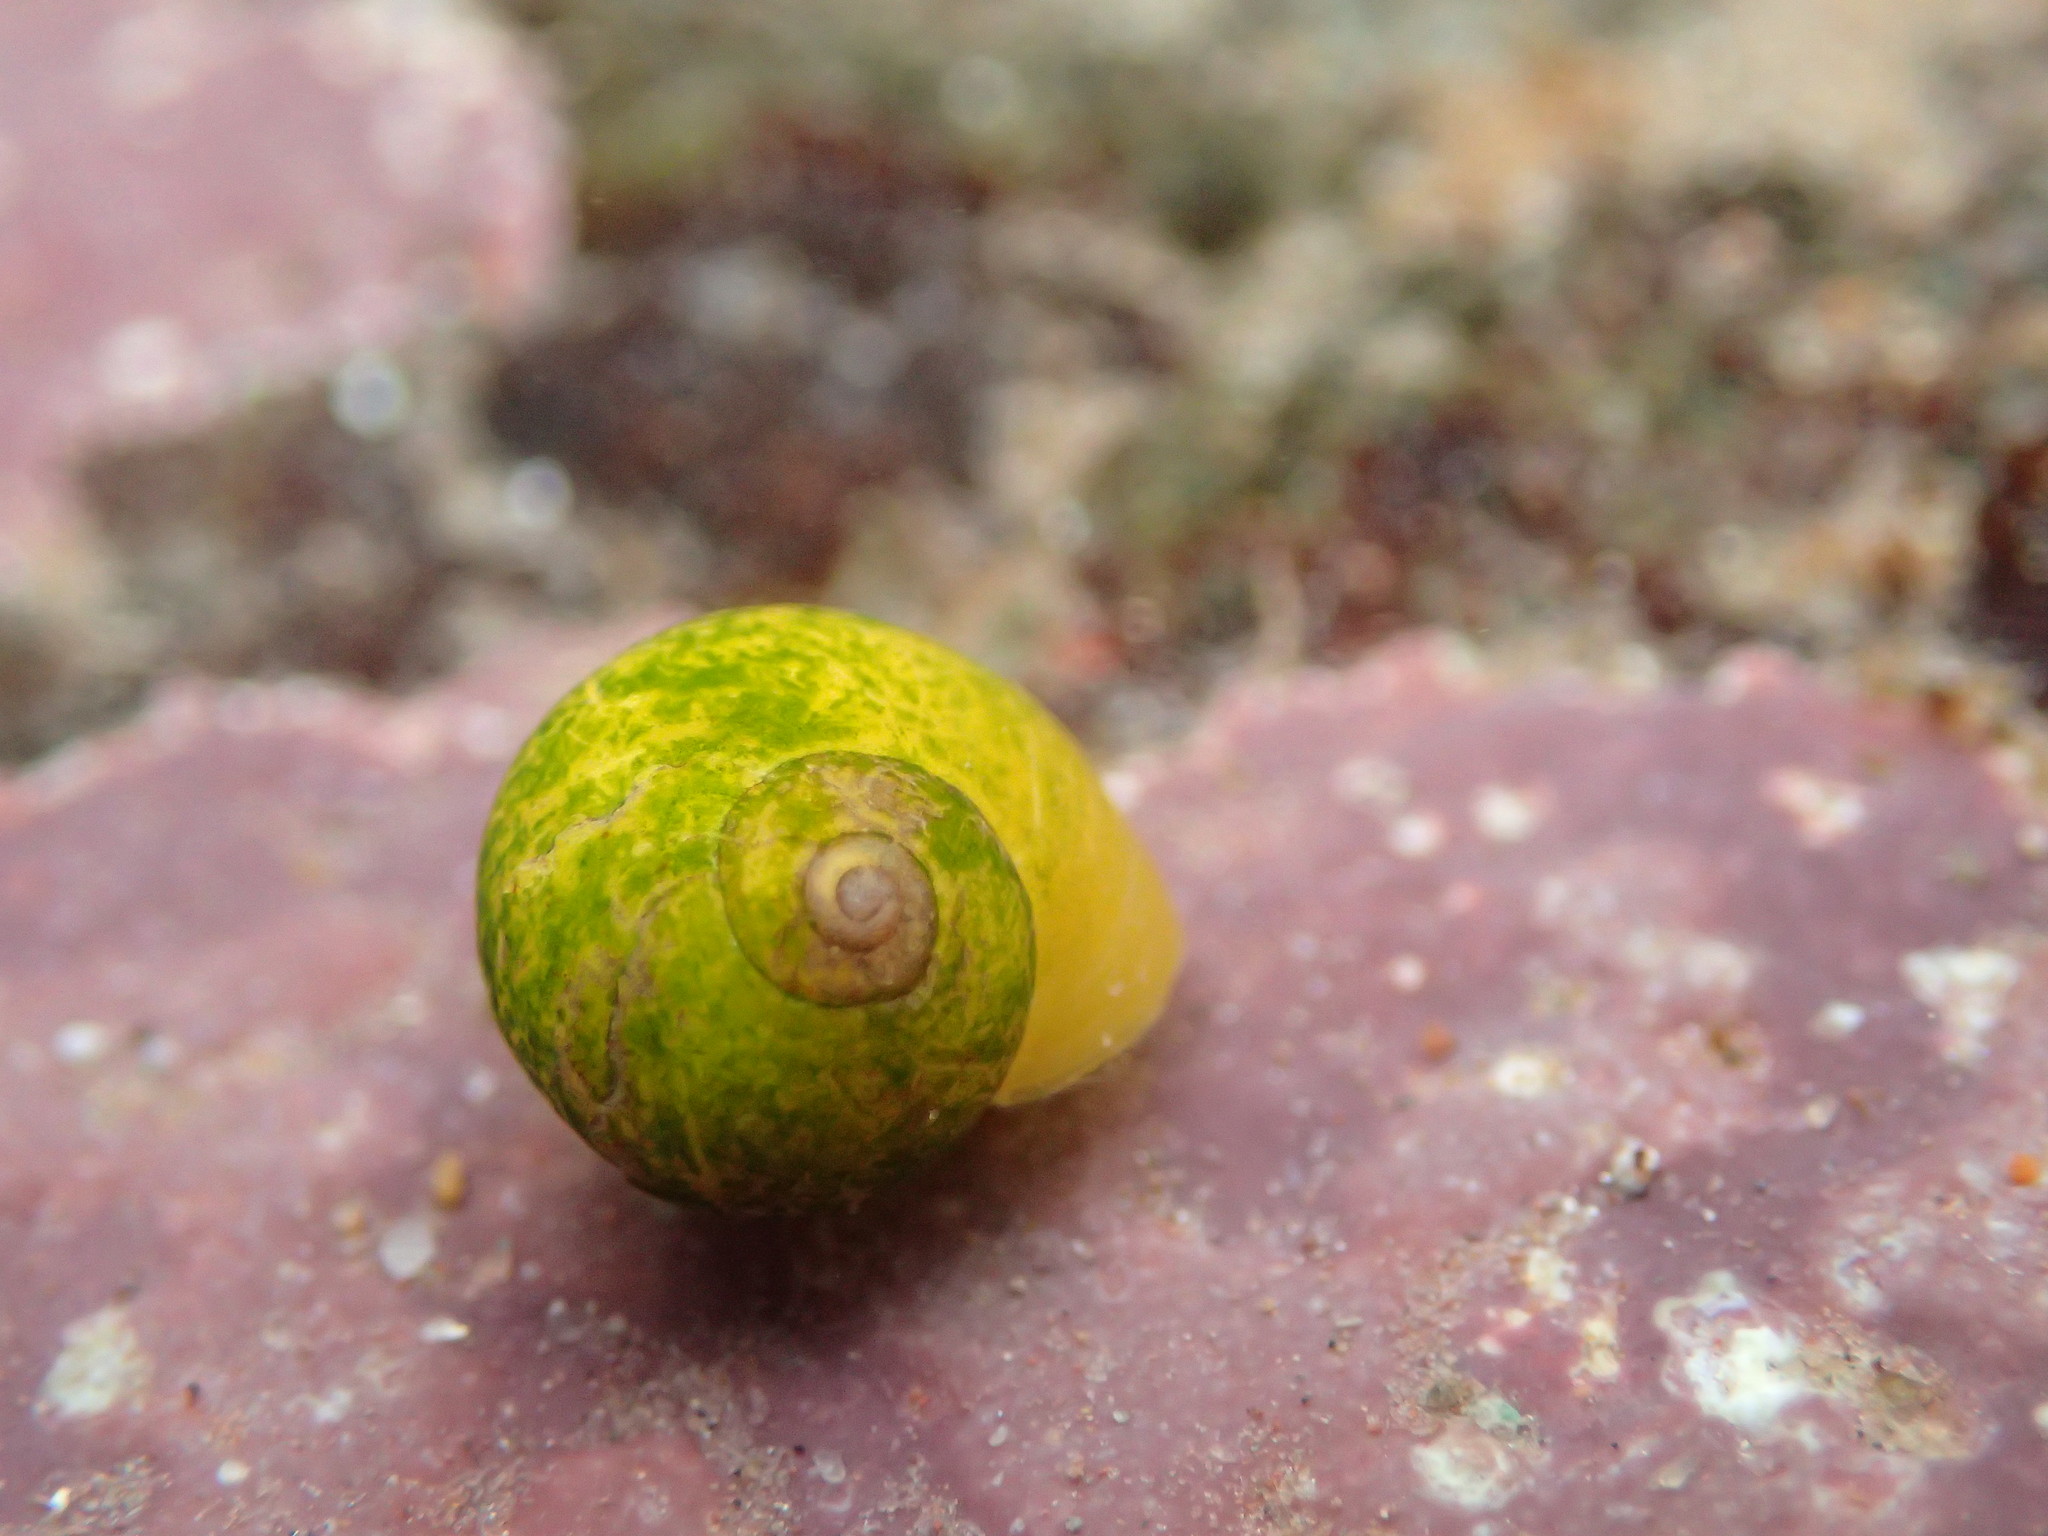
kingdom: Animalia
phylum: Mollusca
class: Gastropoda
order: Littorinimorpha
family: Littorinidae
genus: Littorina
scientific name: Littorina obtusata
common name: Flat periwinkle
